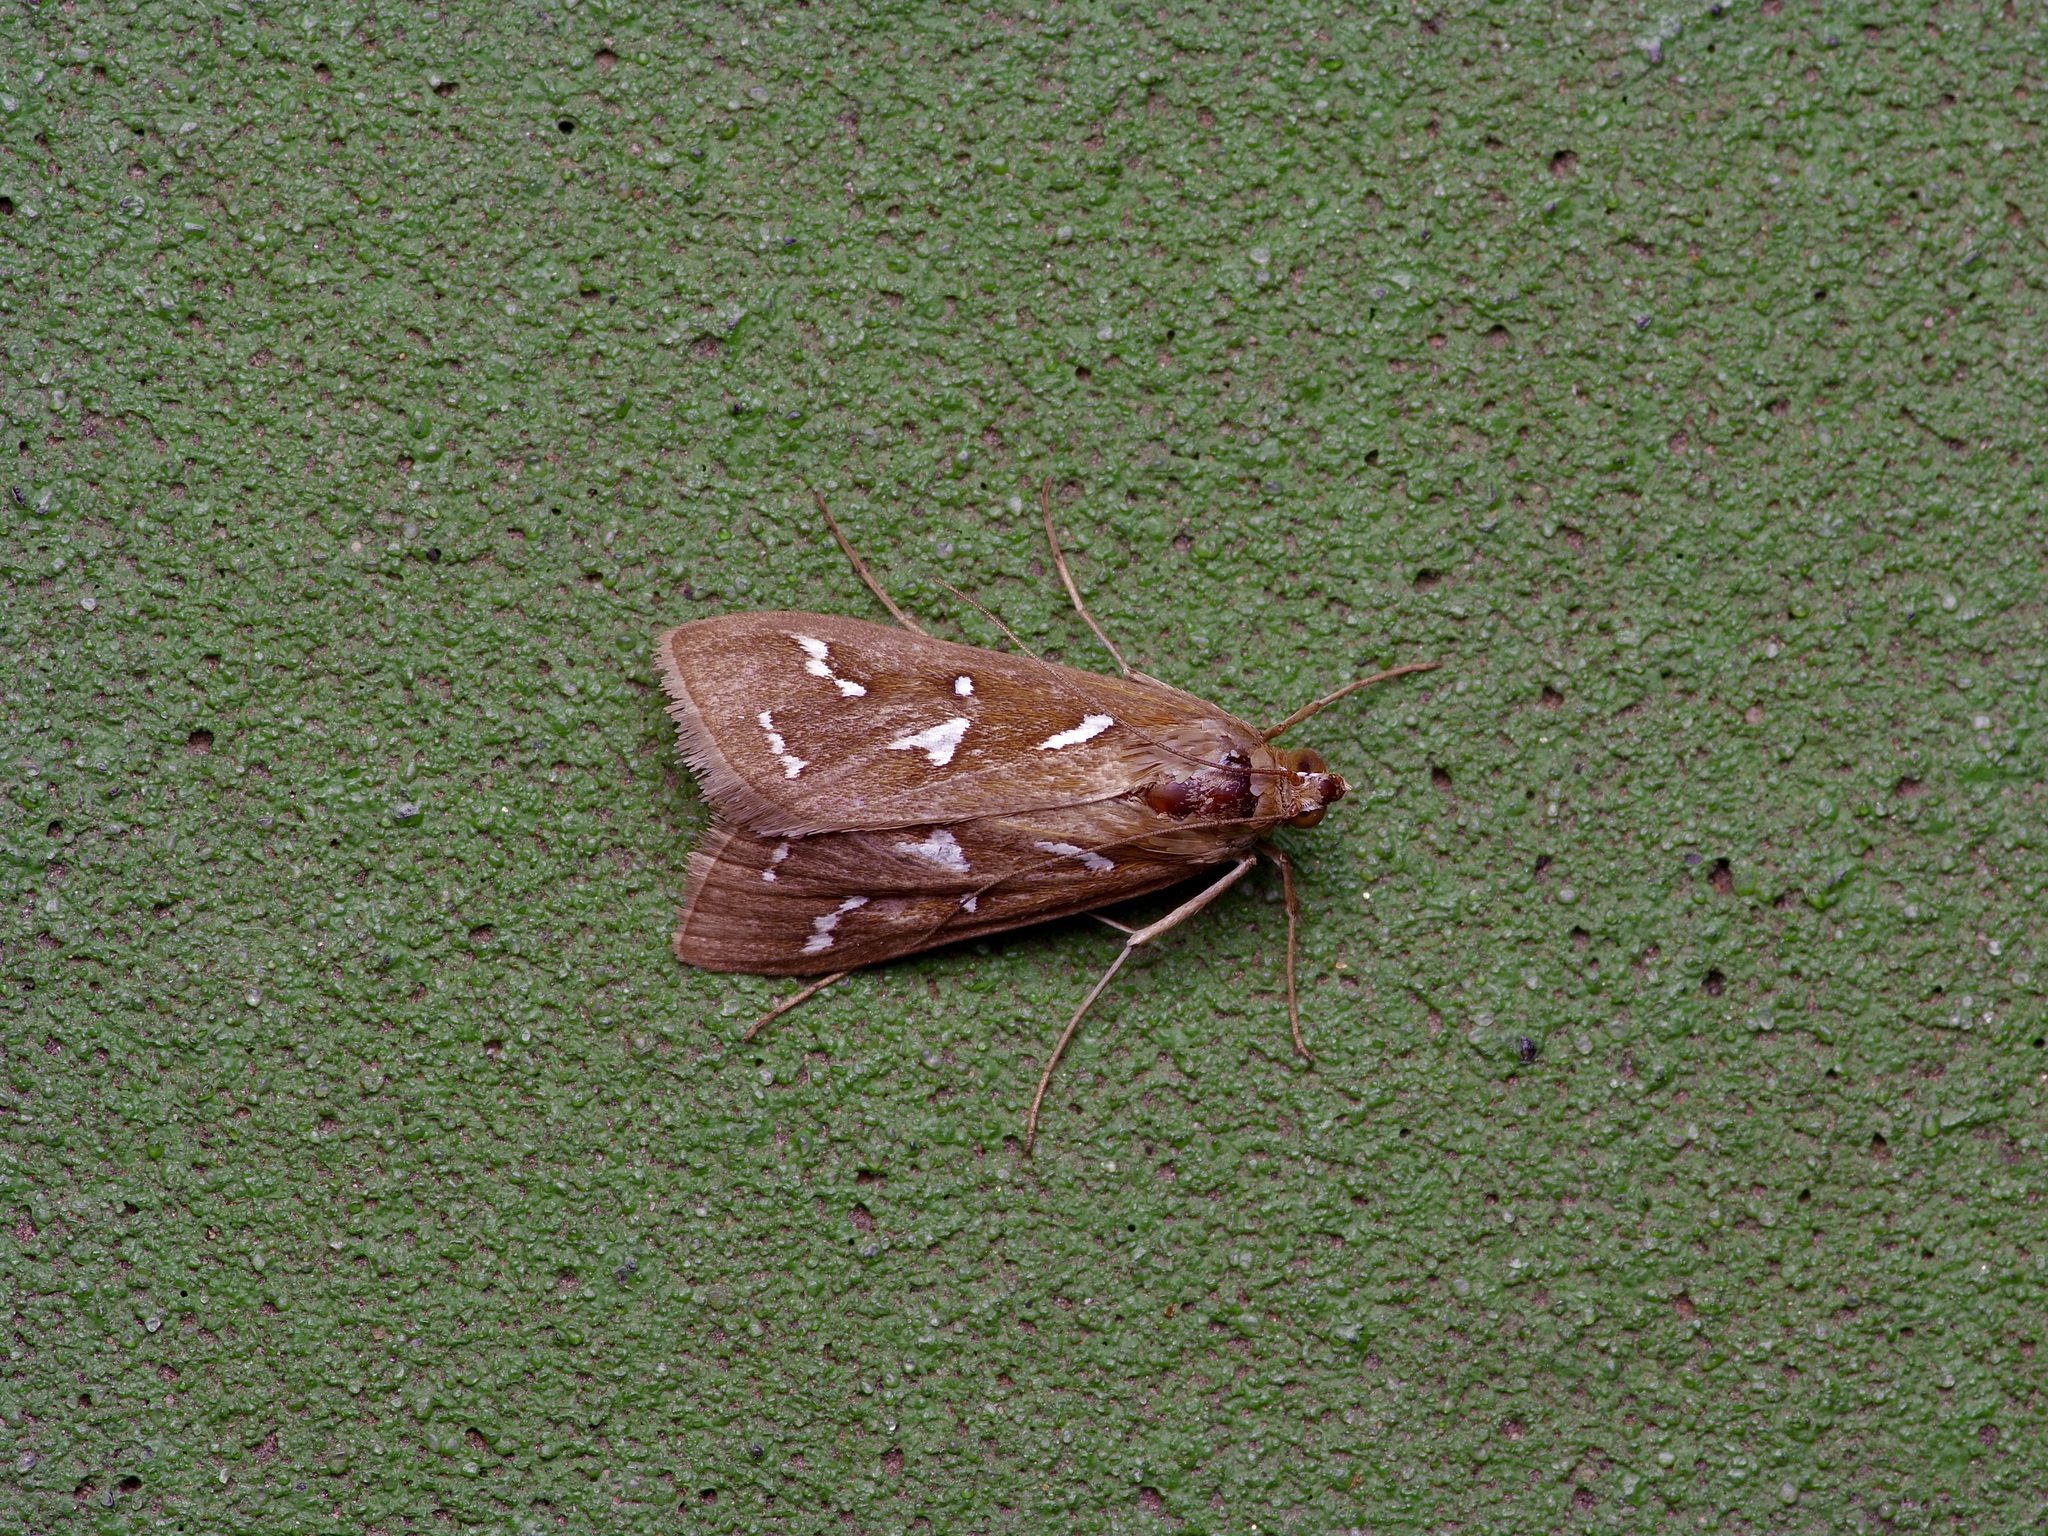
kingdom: Animalia
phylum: Arthropoda
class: Insecta
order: Lepidoptera
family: Crambidae
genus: Diastictis
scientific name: Diastictis fracturalis
